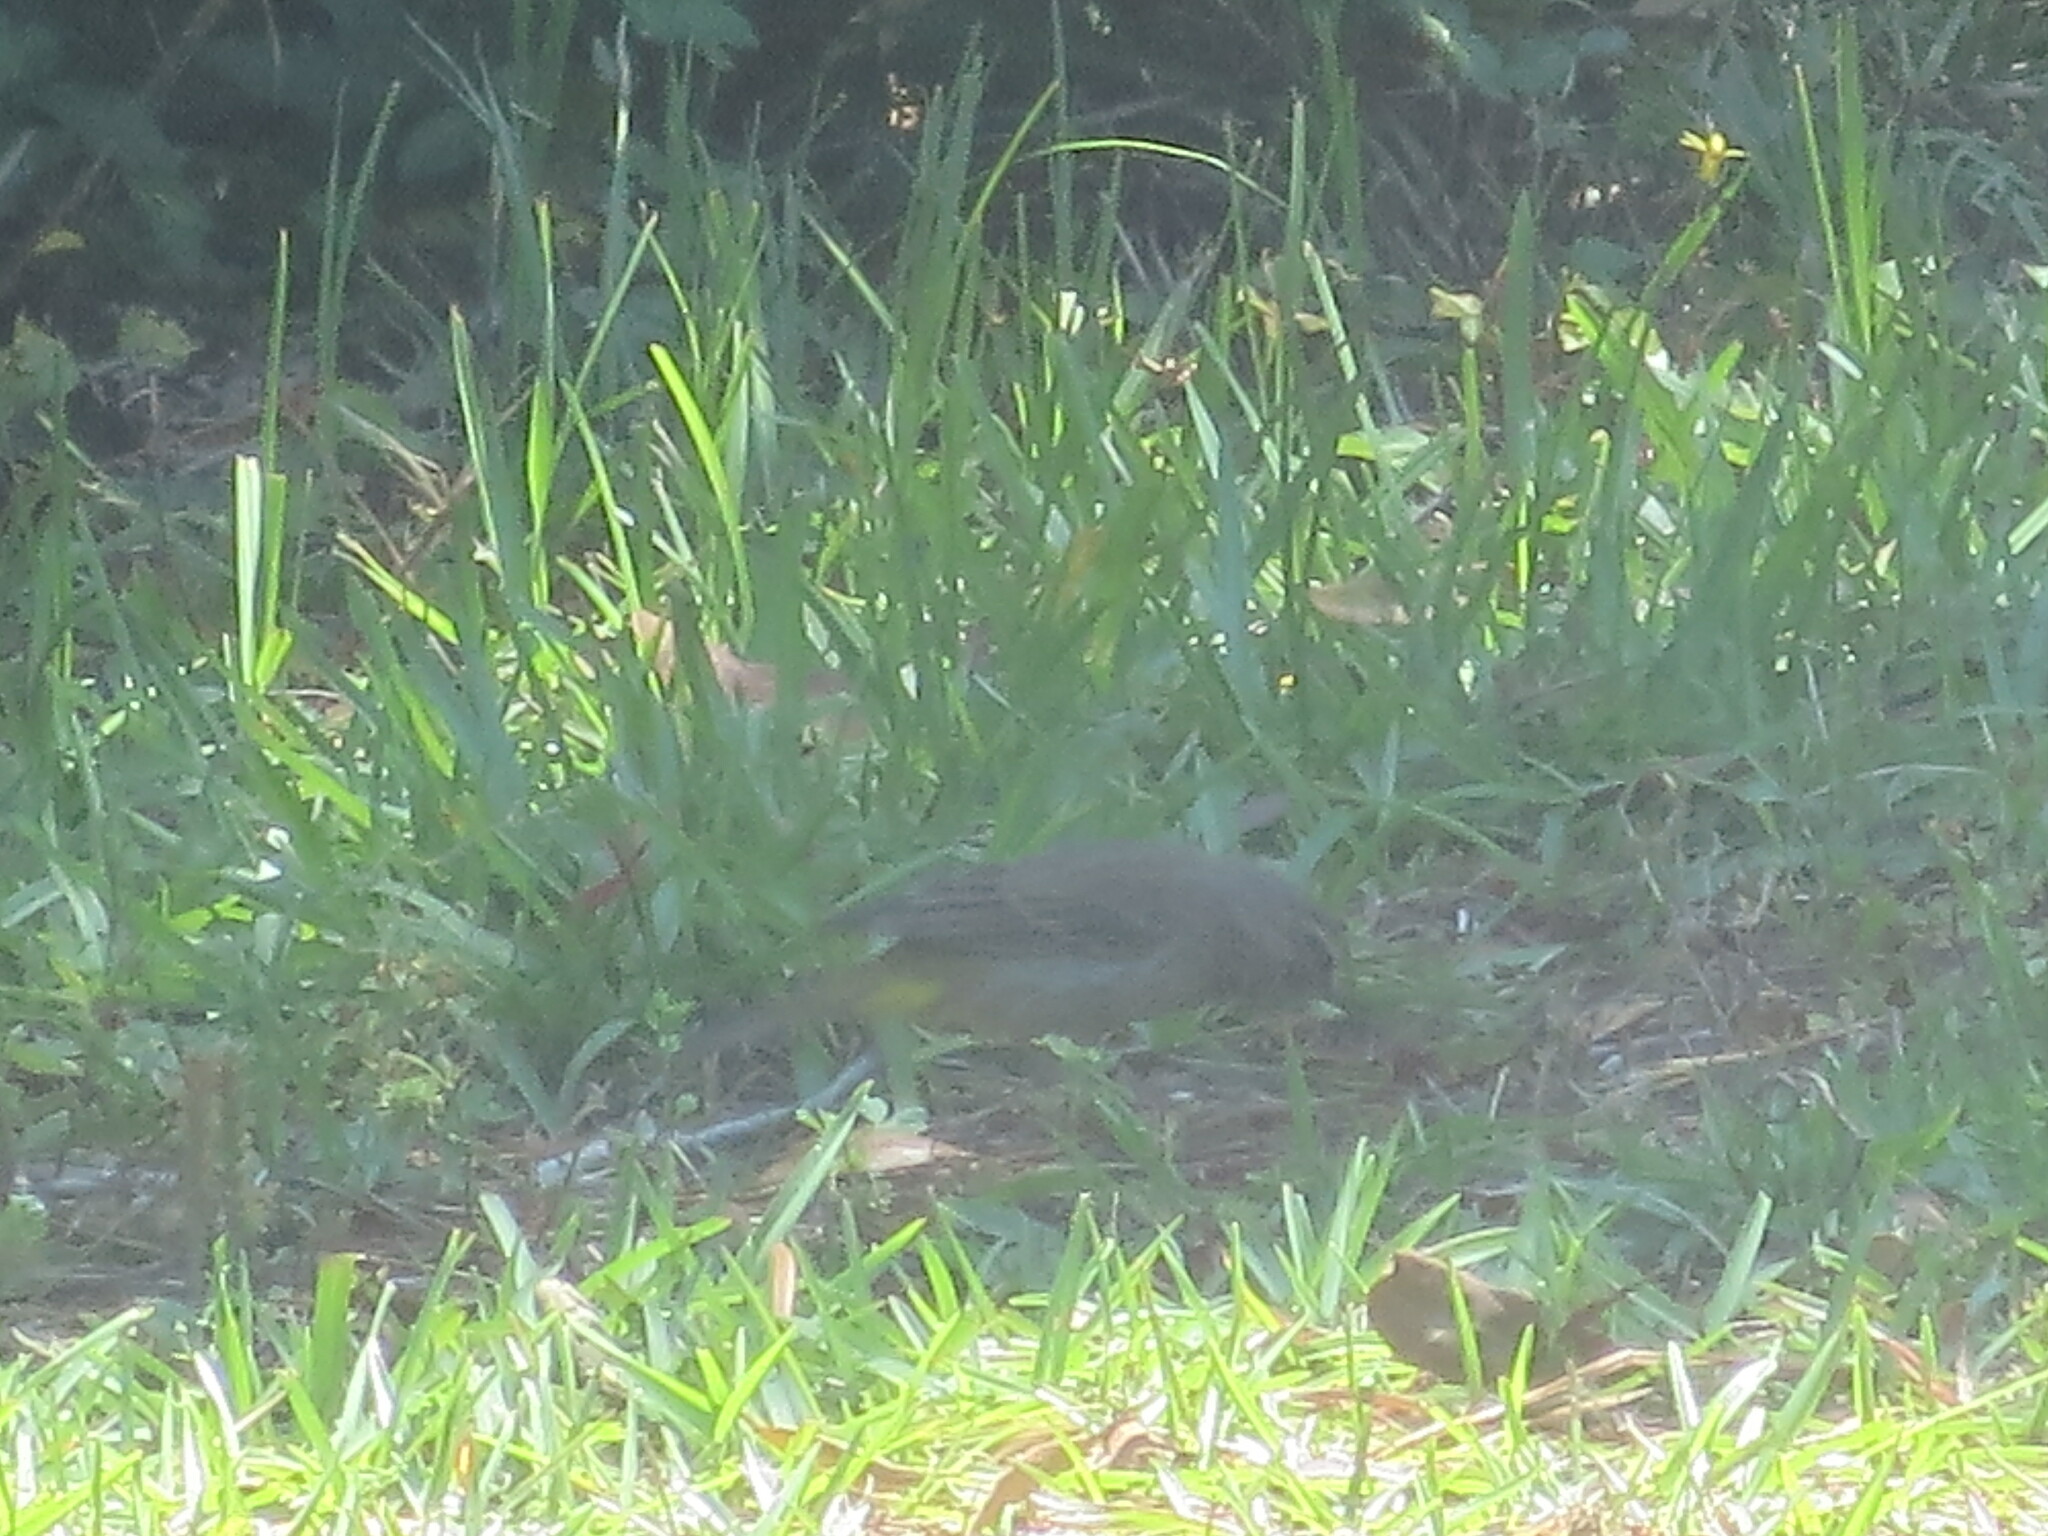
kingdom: Animalia
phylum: Chordata
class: Aves
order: Passeriformes
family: Parulidae
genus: Setophaga
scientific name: Setophaga palmarum
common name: Palm warbler
